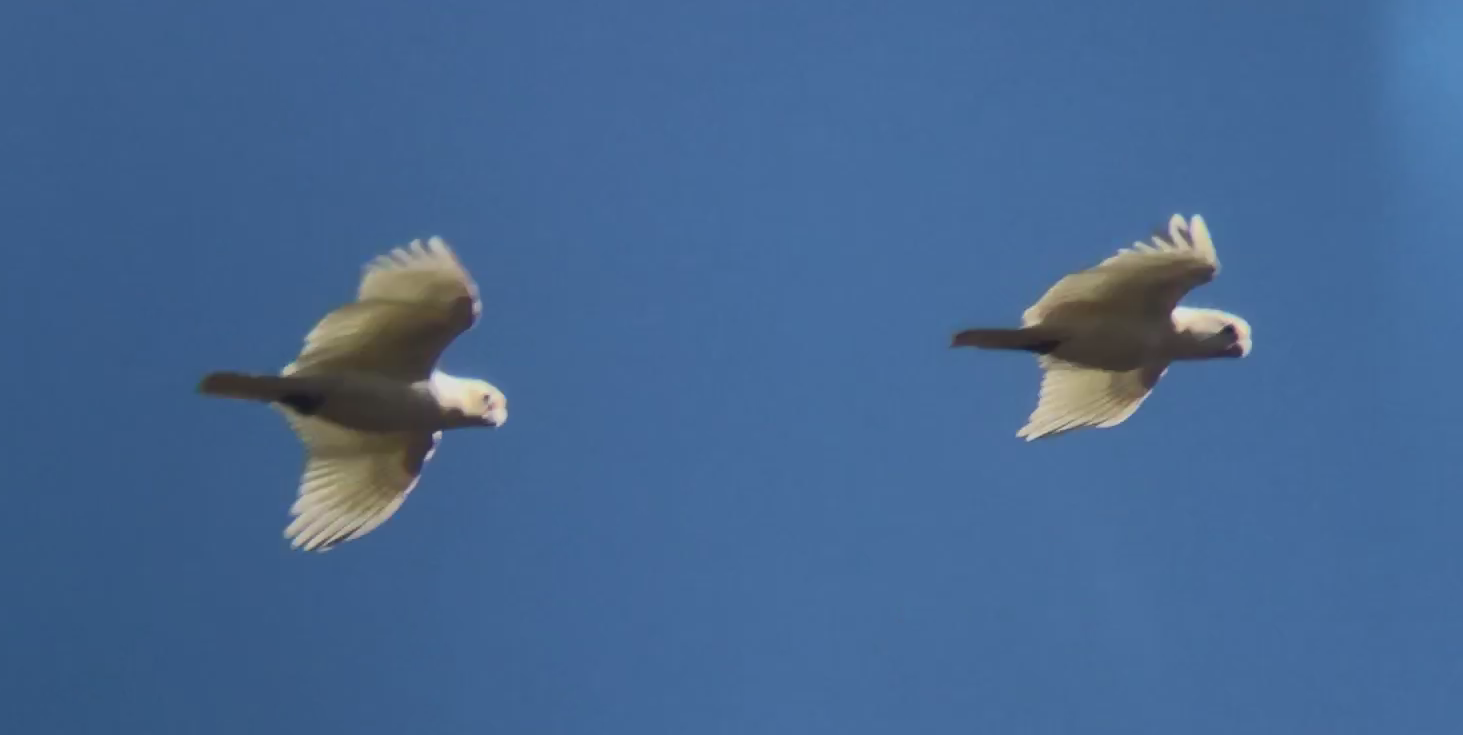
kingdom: Animalia
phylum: Chordata
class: Aves
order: Psittaciformes
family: Psittacidae
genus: Cacatua
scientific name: Cacatua sanguinea
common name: Little corella
